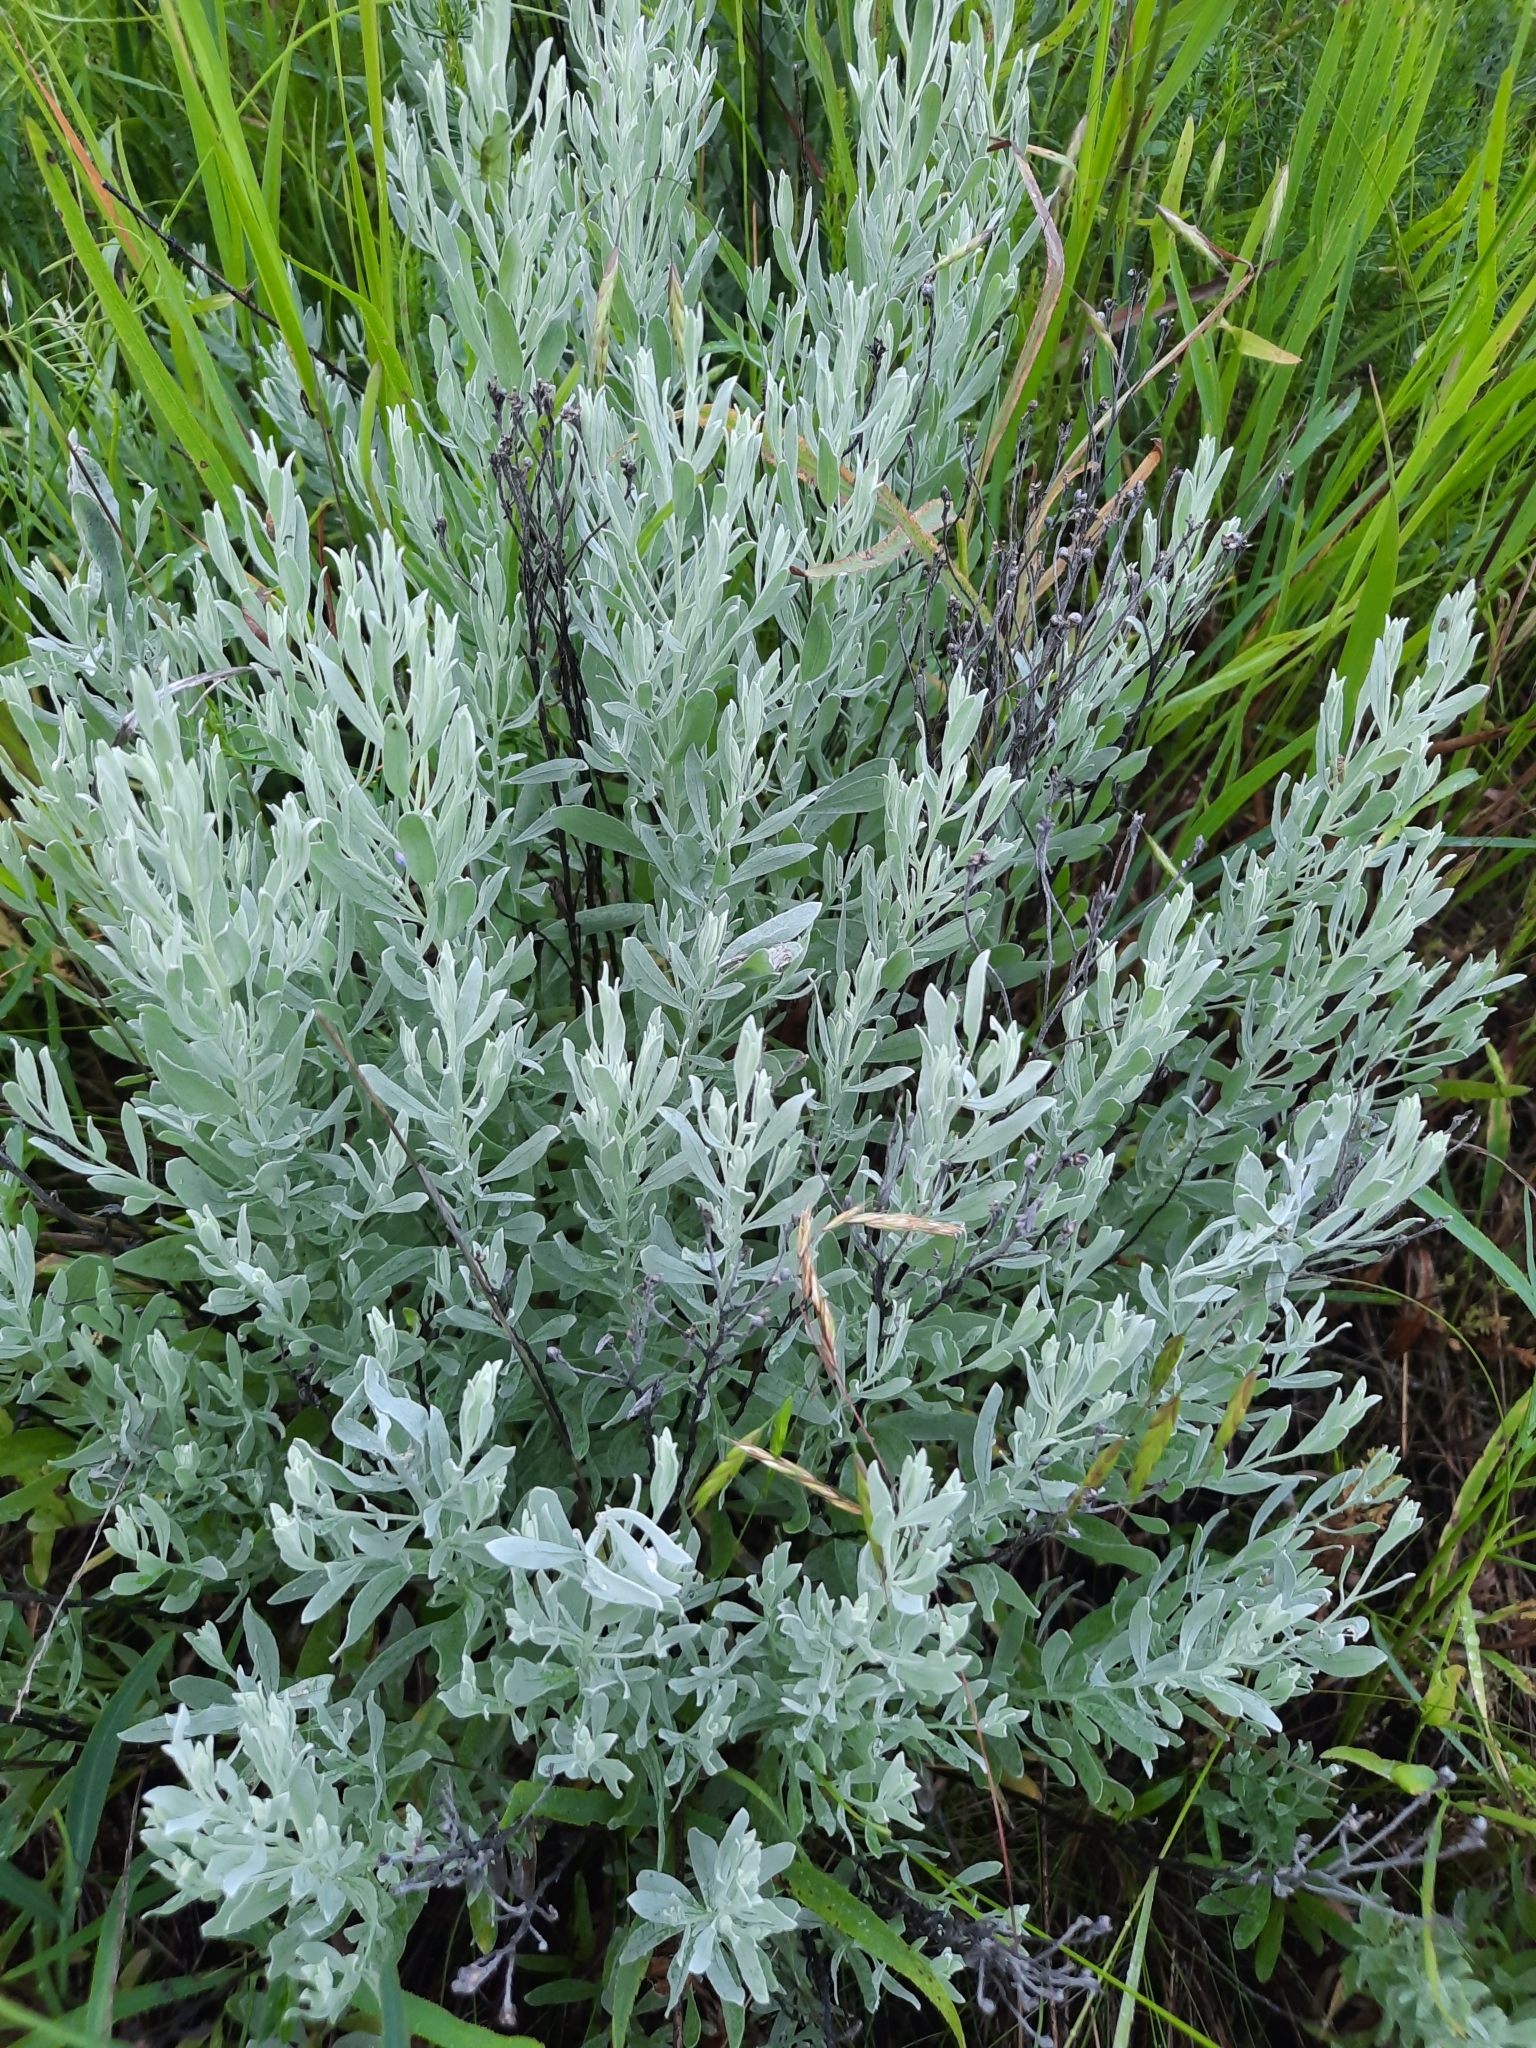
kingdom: Plantae
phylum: Tracheophyta
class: Magnoliopsida
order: Asterales
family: Asteraceae
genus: Galatella
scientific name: Galatella villosa
